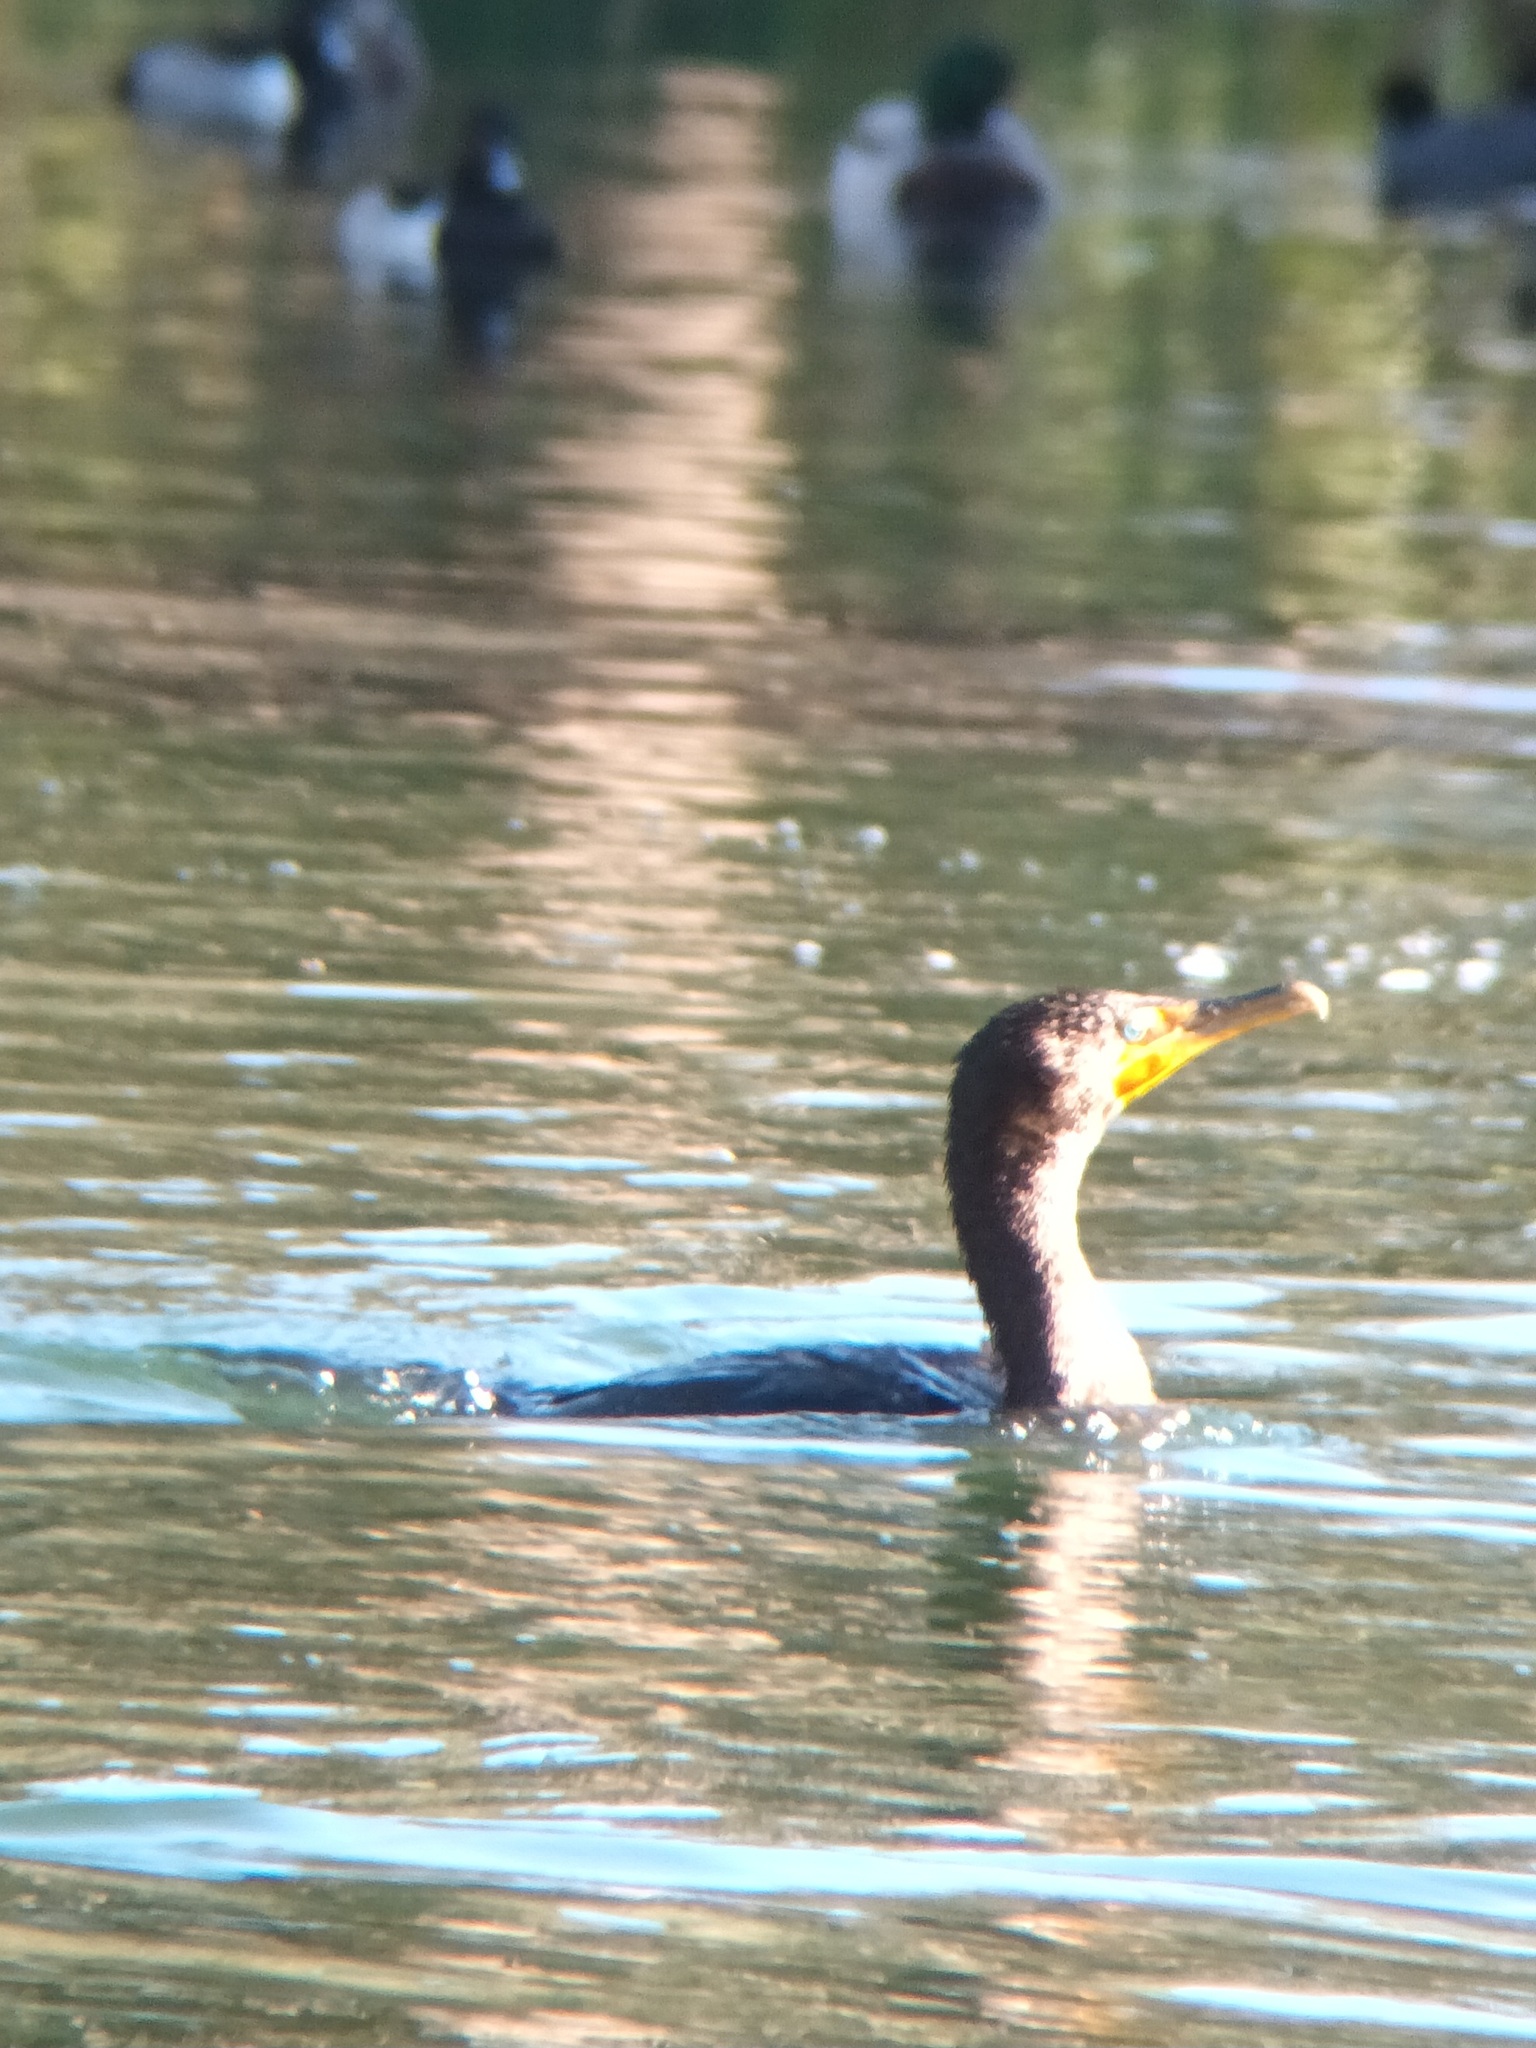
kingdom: Animalia
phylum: Chordata
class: Aves
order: Suliformes
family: Phalacrocoracidae
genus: Phalacrocorax
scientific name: Phalacrocorax auritus
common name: Double-crested cormorant
